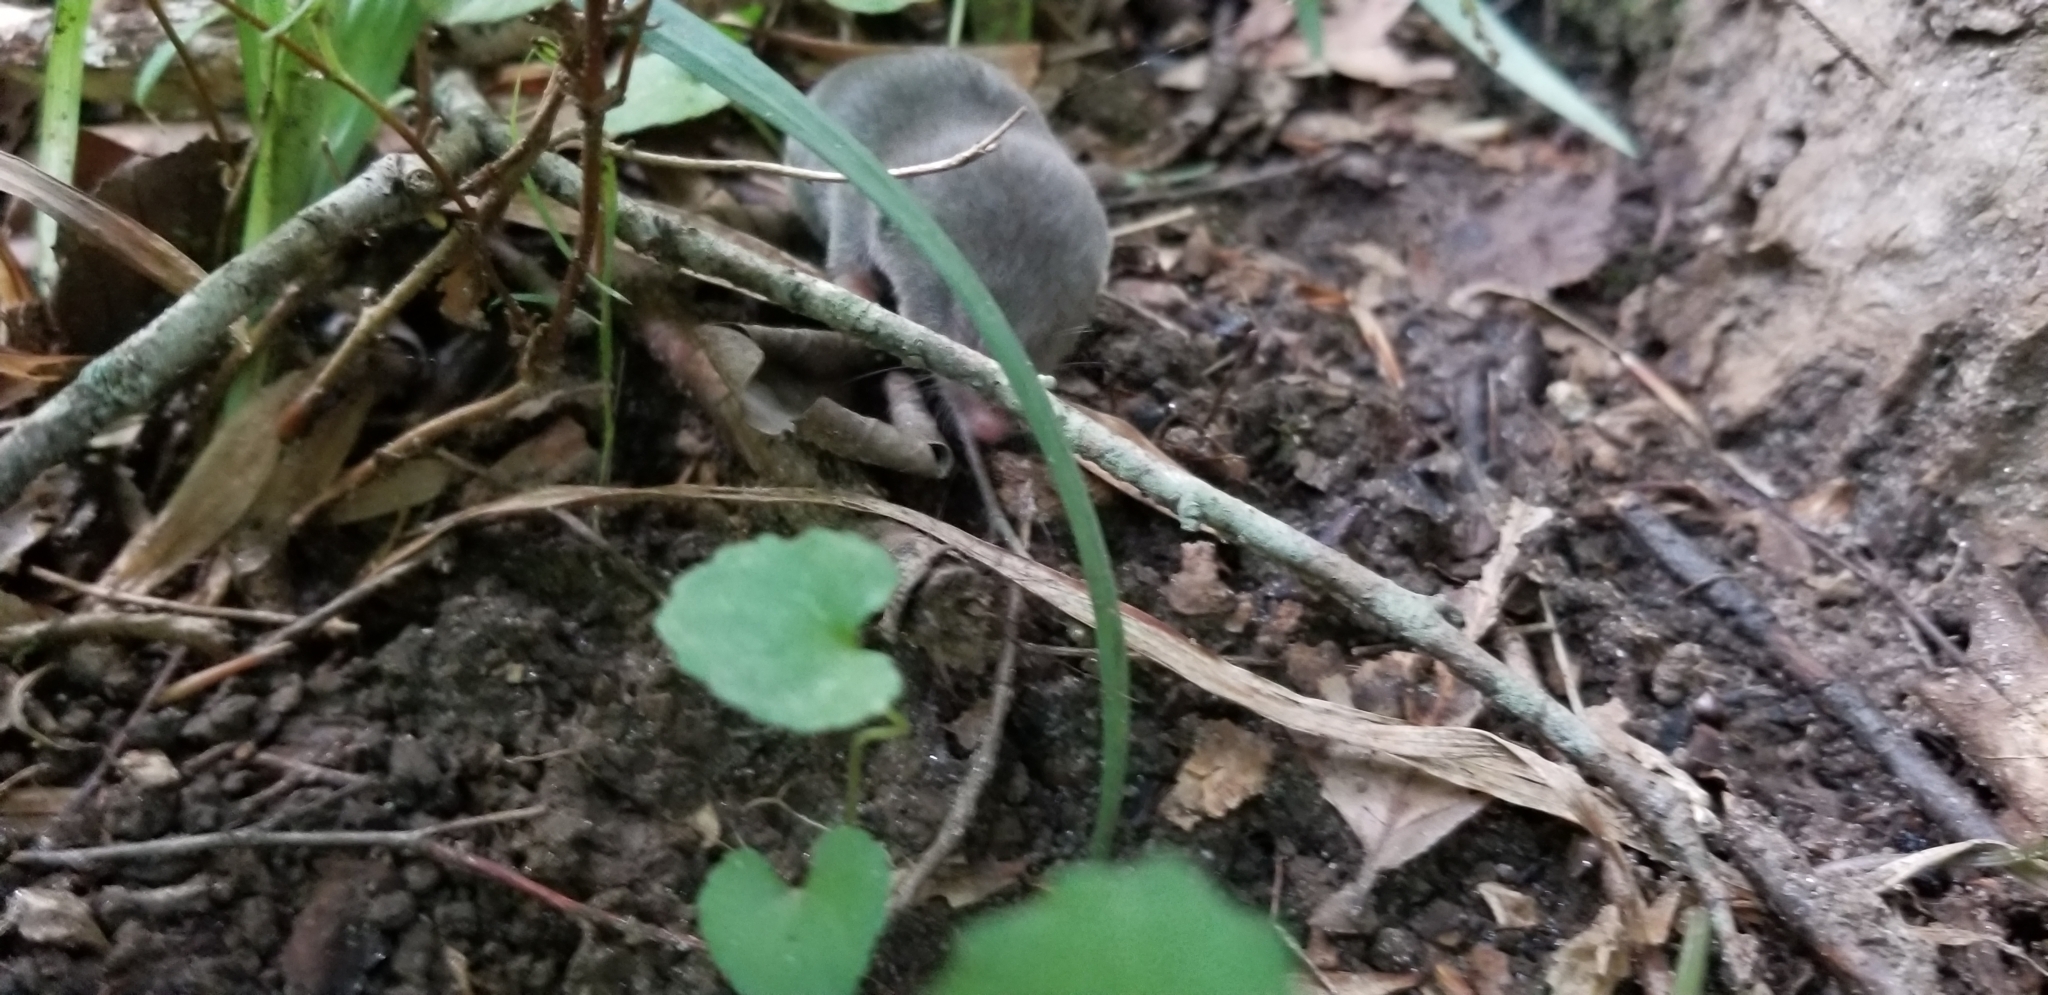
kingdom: Animalia
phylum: Chordata
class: Mammalia
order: Soricomorpha
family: Soricidae
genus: Blarina
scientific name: Blarina brevicauda
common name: Northern short-tailed shrew
